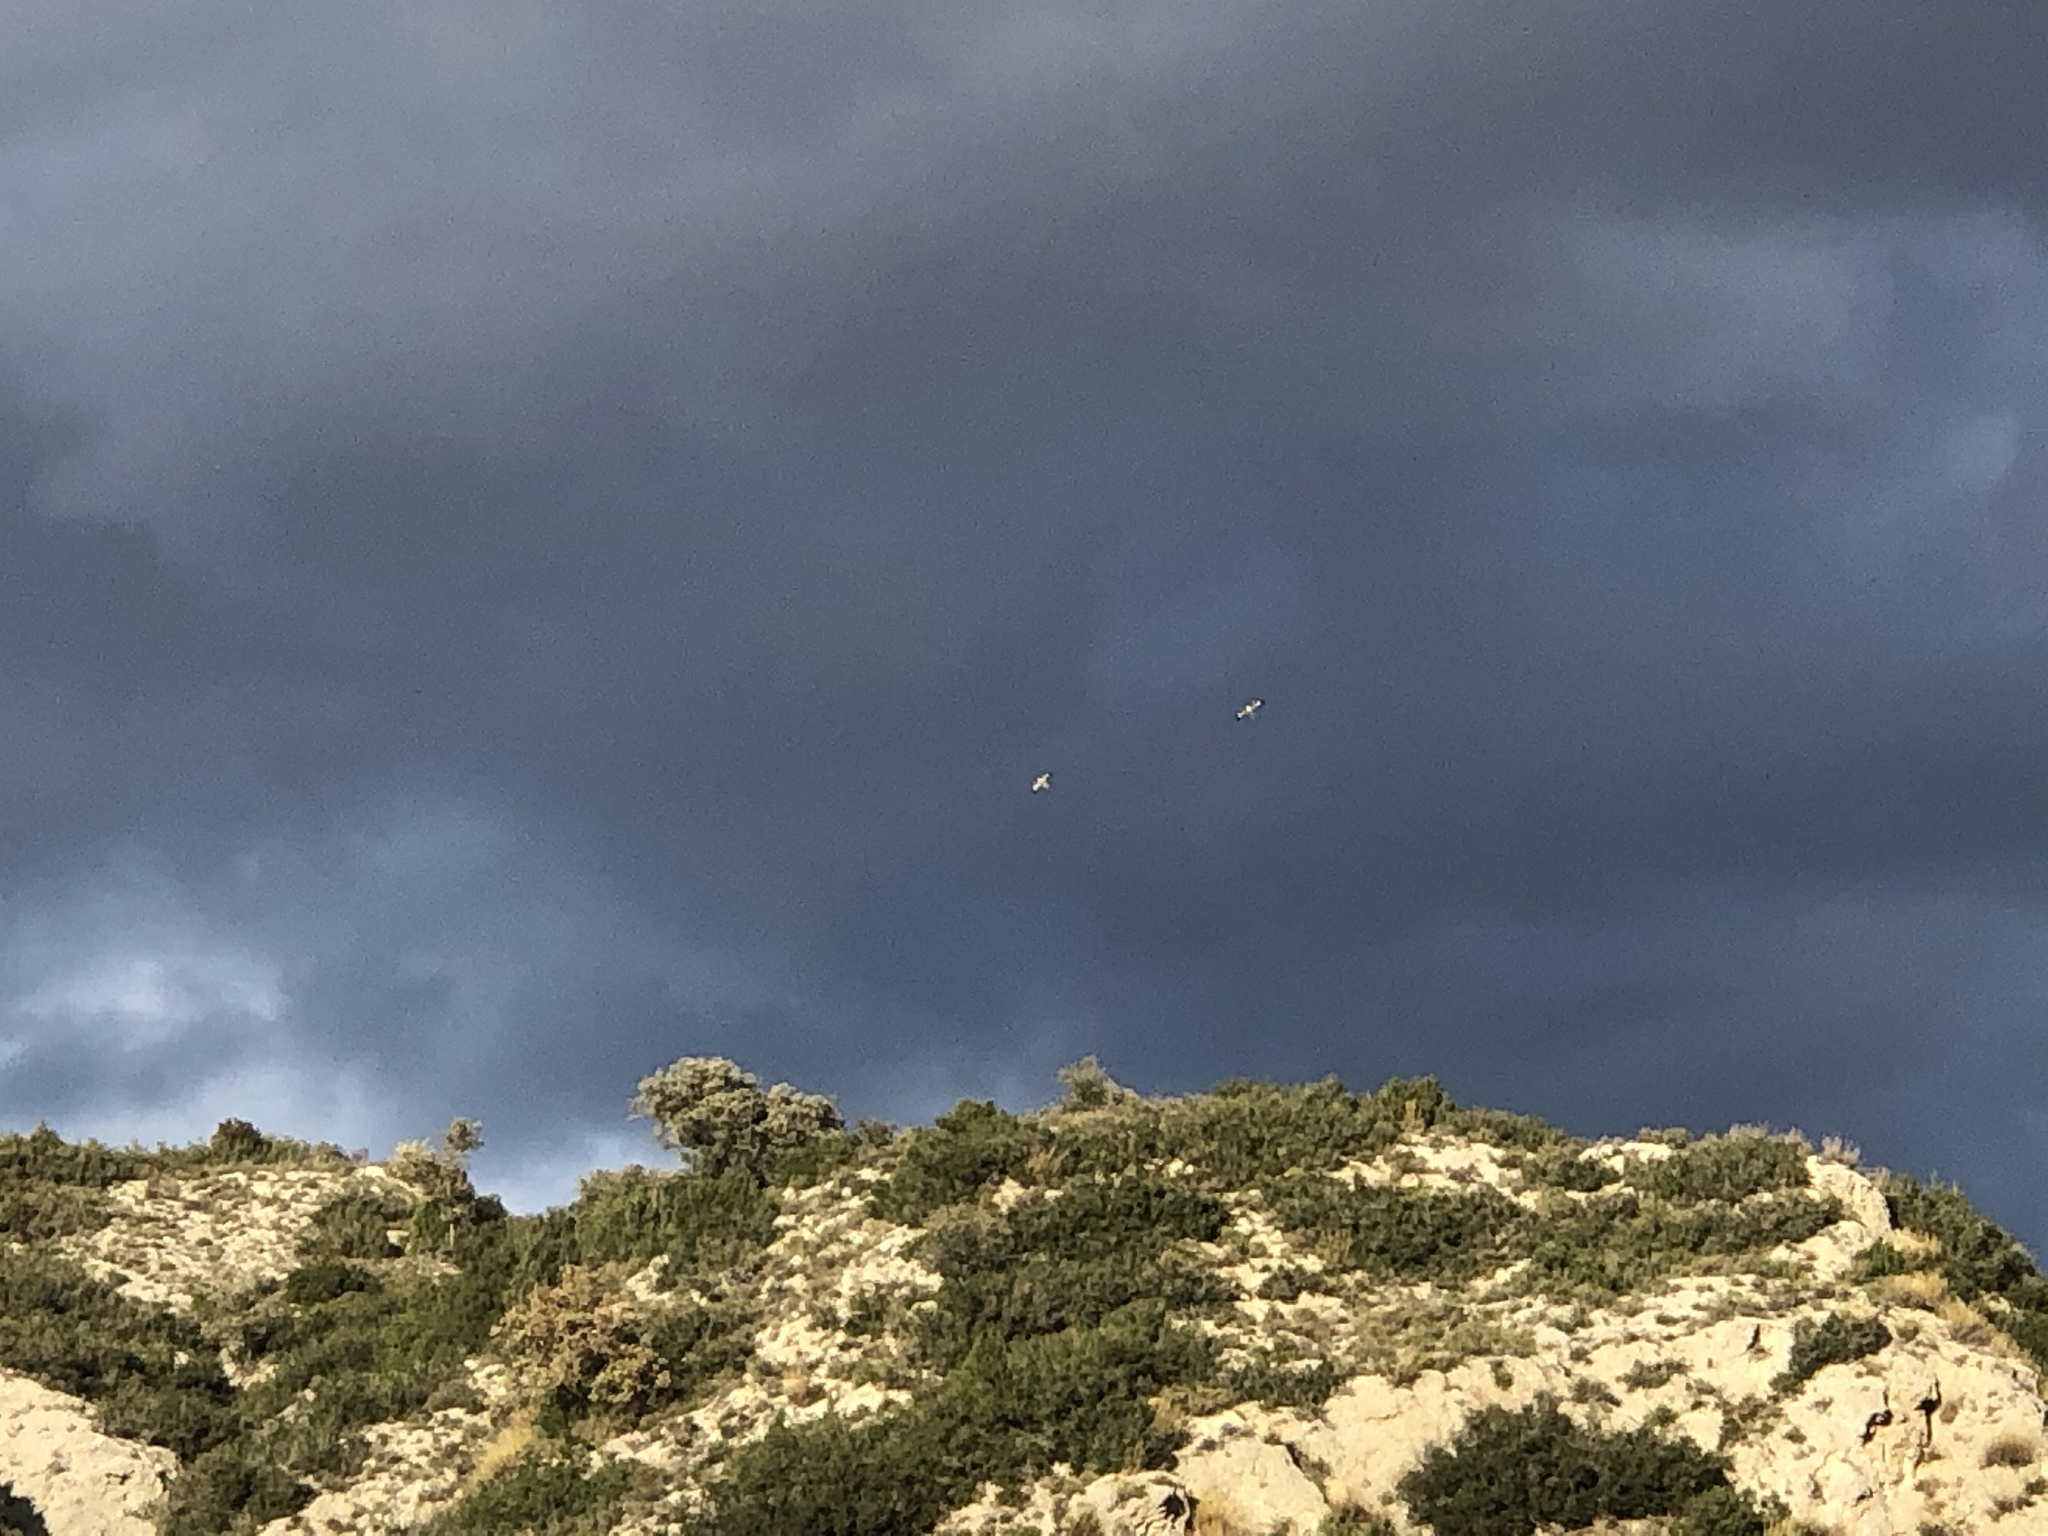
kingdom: Animalia
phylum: Chordata
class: Aves
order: Accipitriformes
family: Accipitridae
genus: Buteo
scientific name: Buteo buteo
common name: Common buzzard
